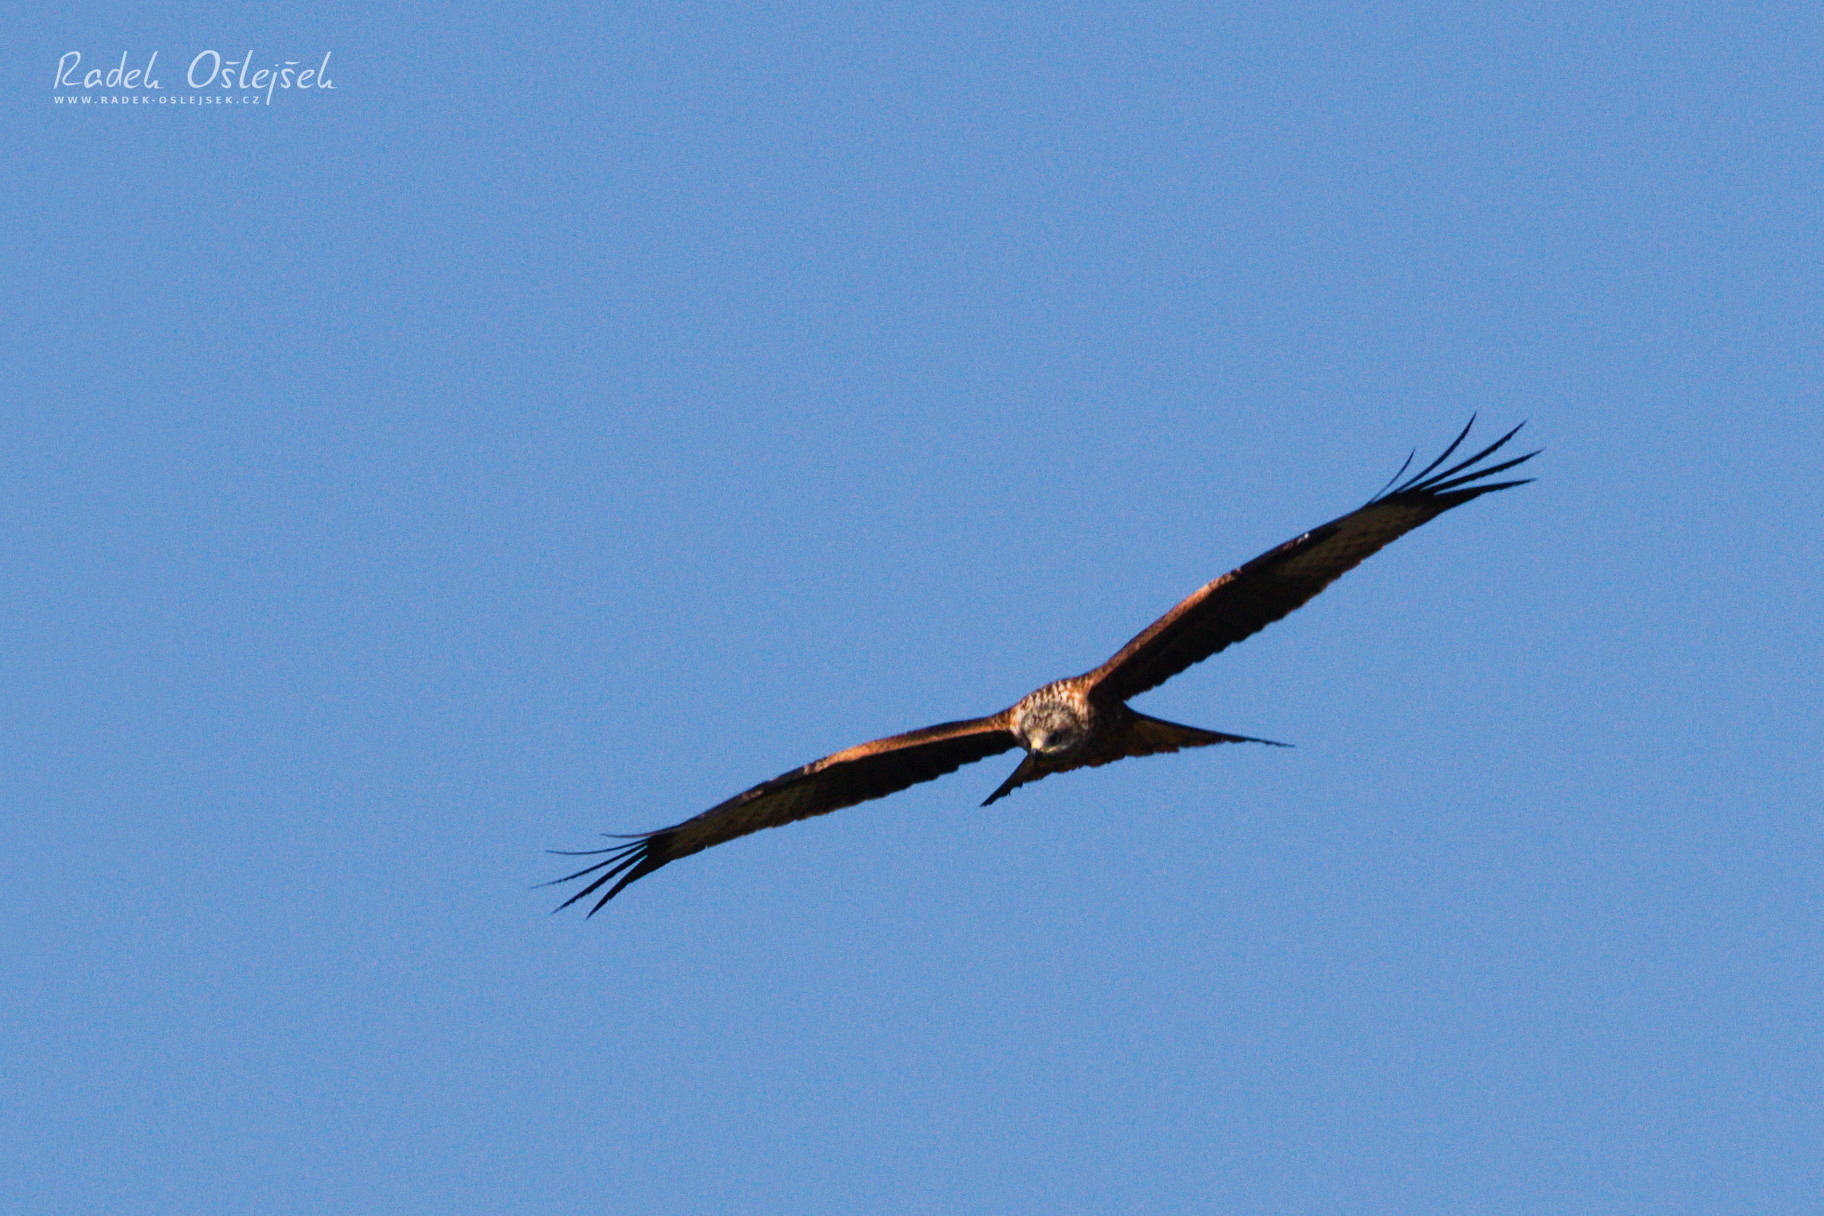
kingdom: Animalia
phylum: Chordata
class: Aves
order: Accipitriformes
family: Accipitridae
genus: Milvus
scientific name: Milvus milvus
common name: Red kite
